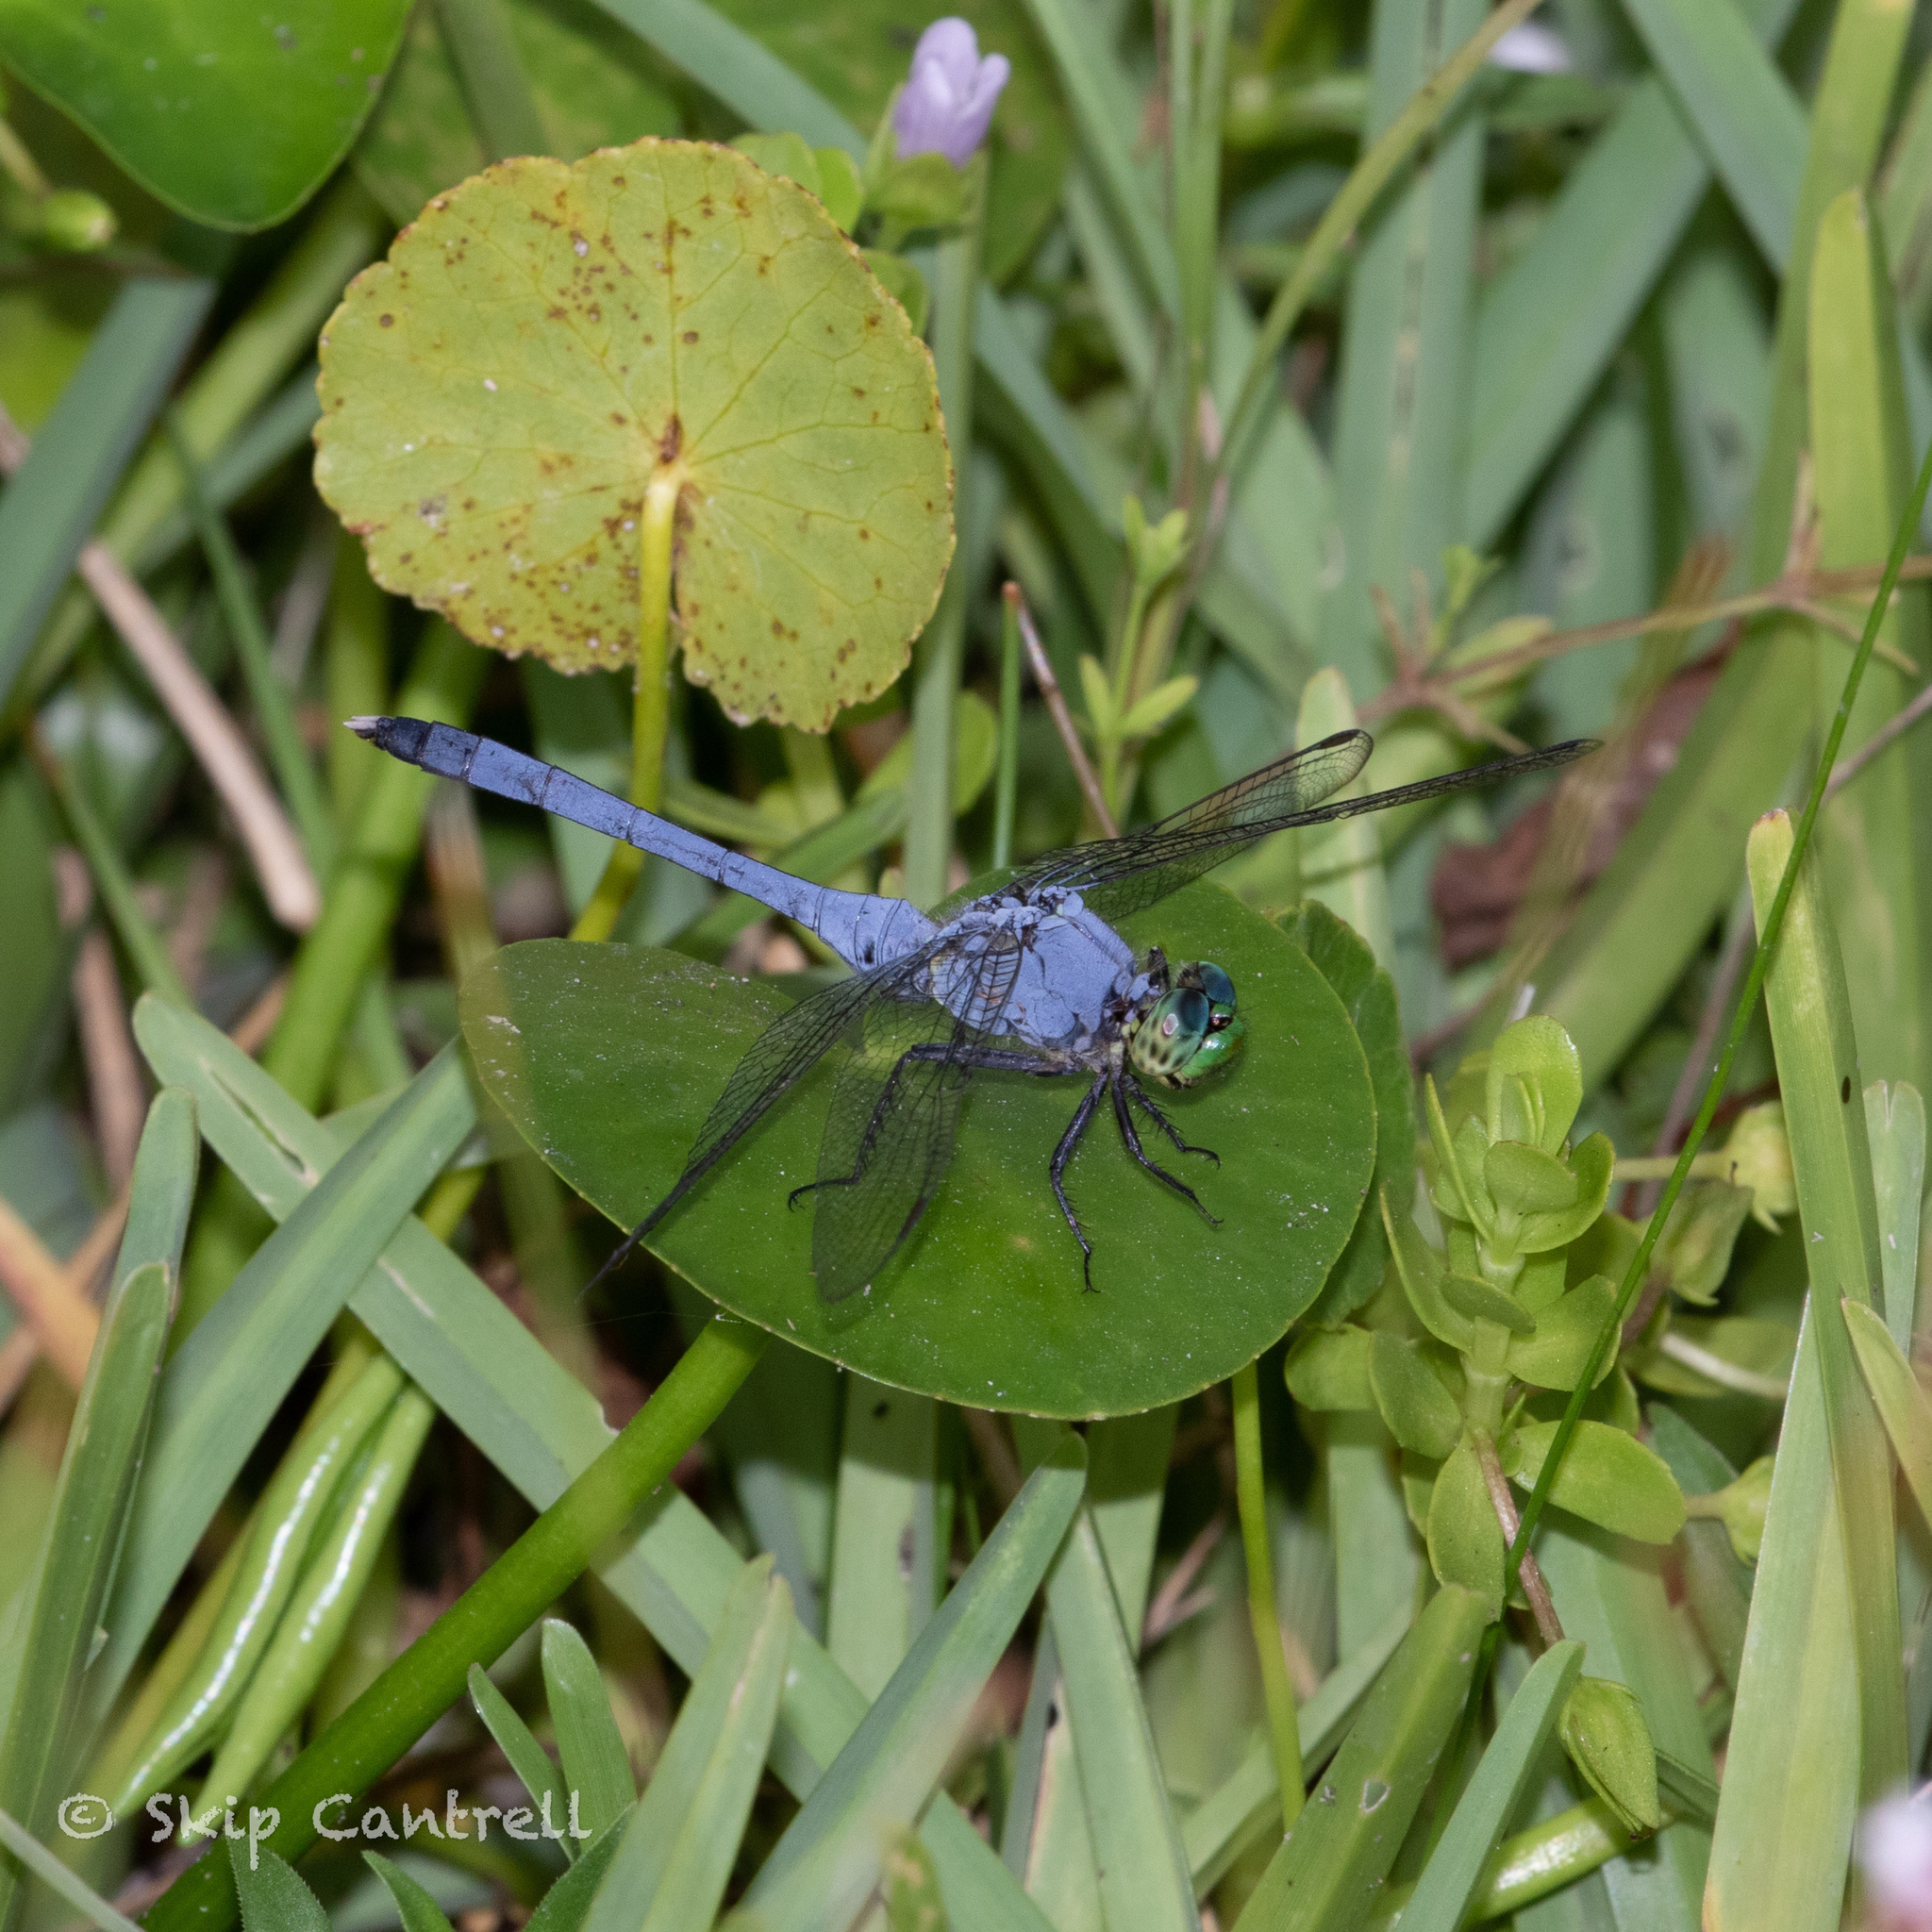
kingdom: Animalia
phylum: Arthropoda
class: Insecta
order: Odonata
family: Libellulidae
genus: Erythemis
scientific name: Erythemis simplicicollis
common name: Eastern pondhawk
